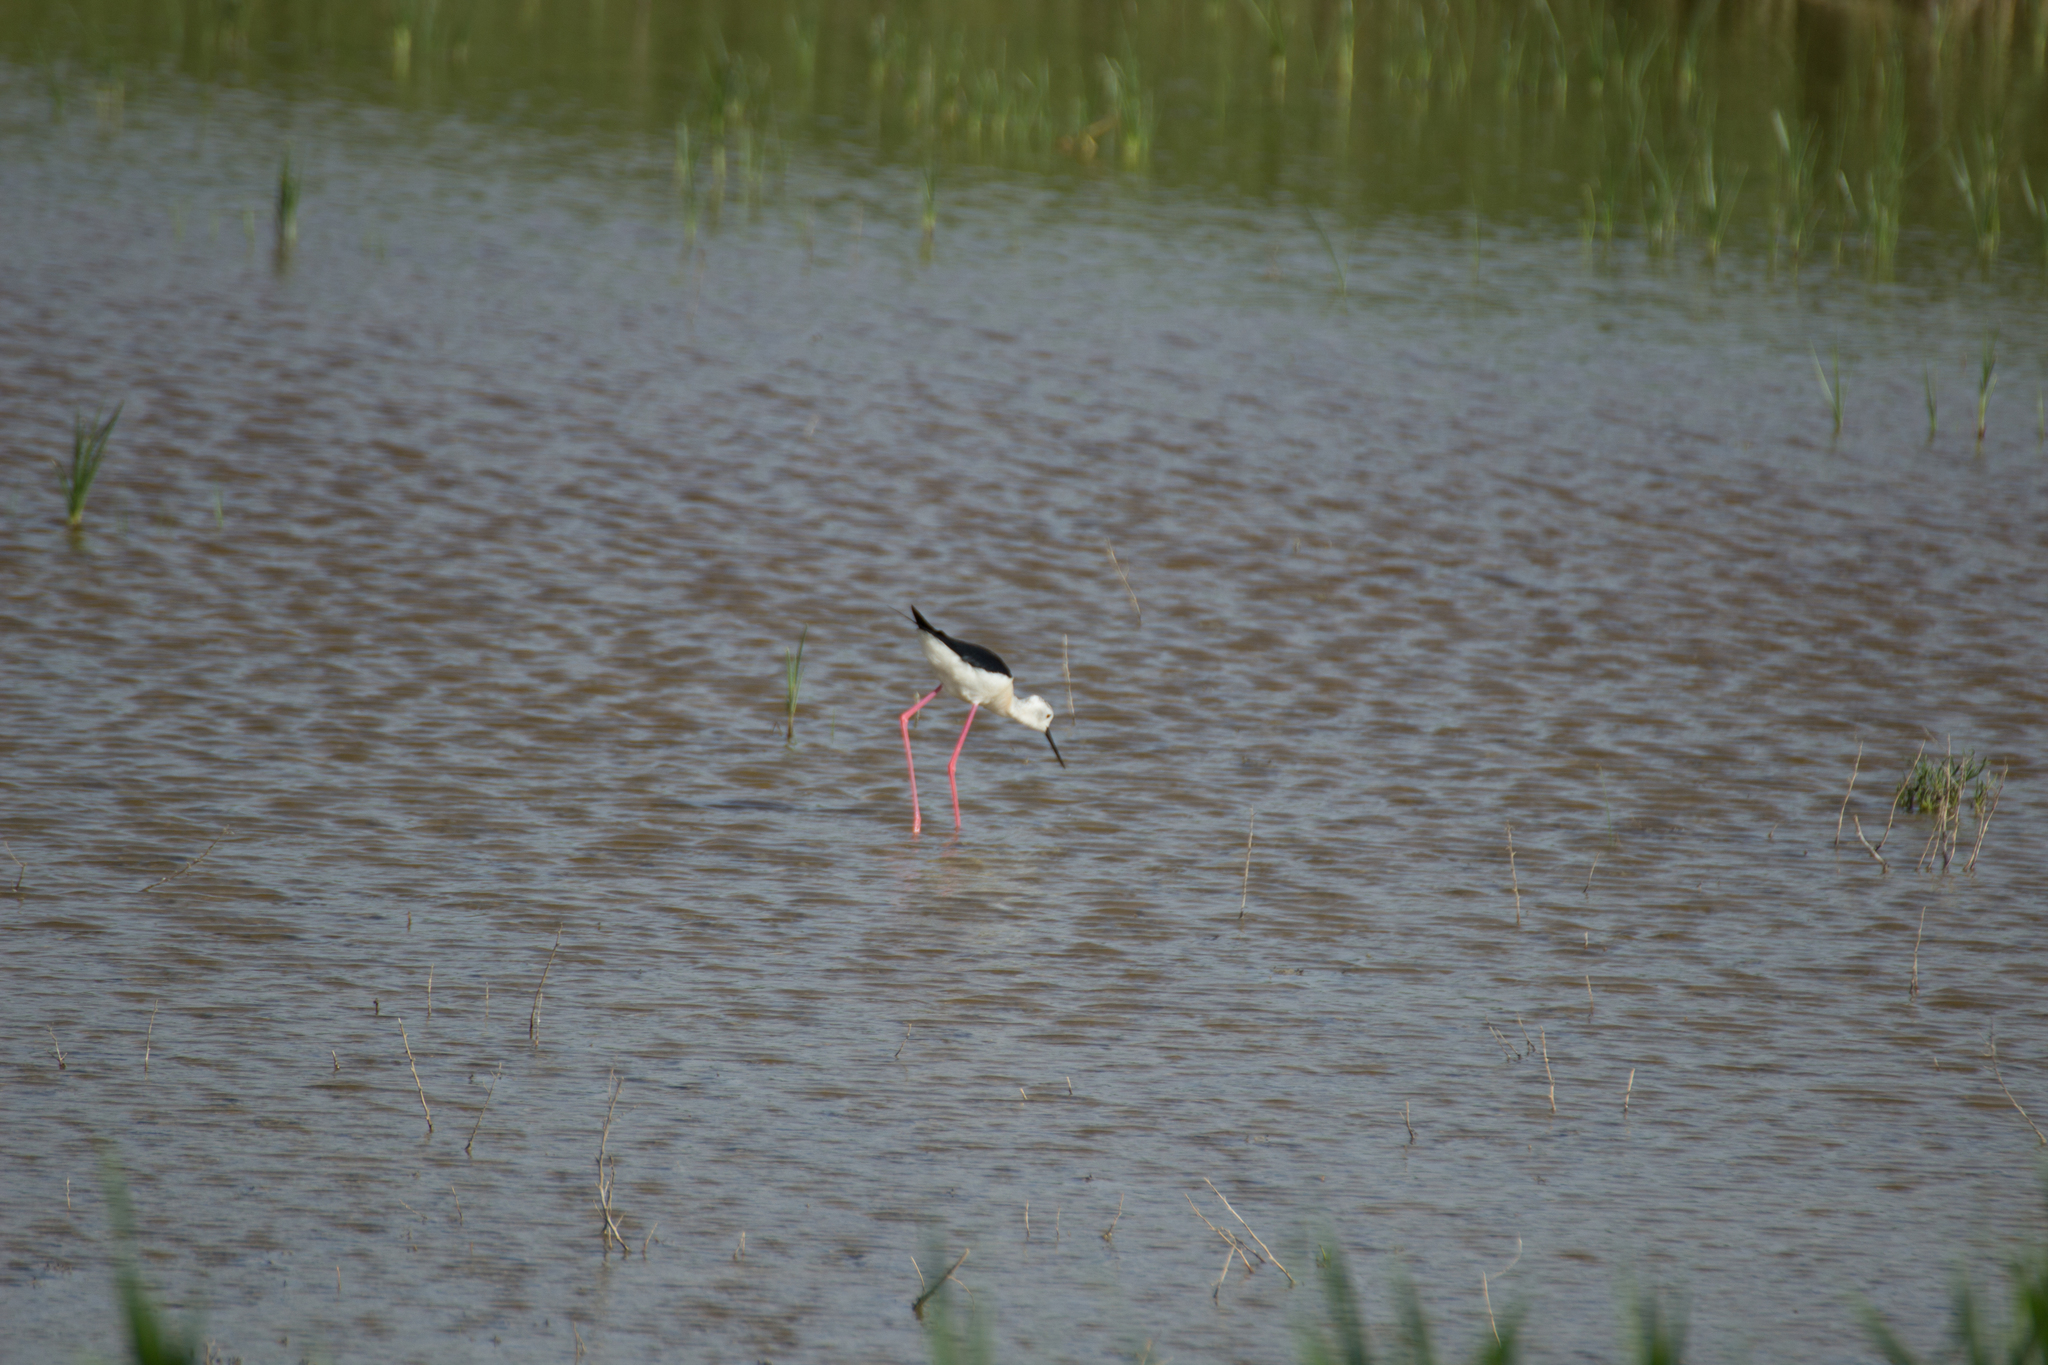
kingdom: Animalia
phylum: Chordata
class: Aves
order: Charadriiformes
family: Recurvirostridae
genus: Himantopus
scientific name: Himantopus himantopus
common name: Black-winged stilt
